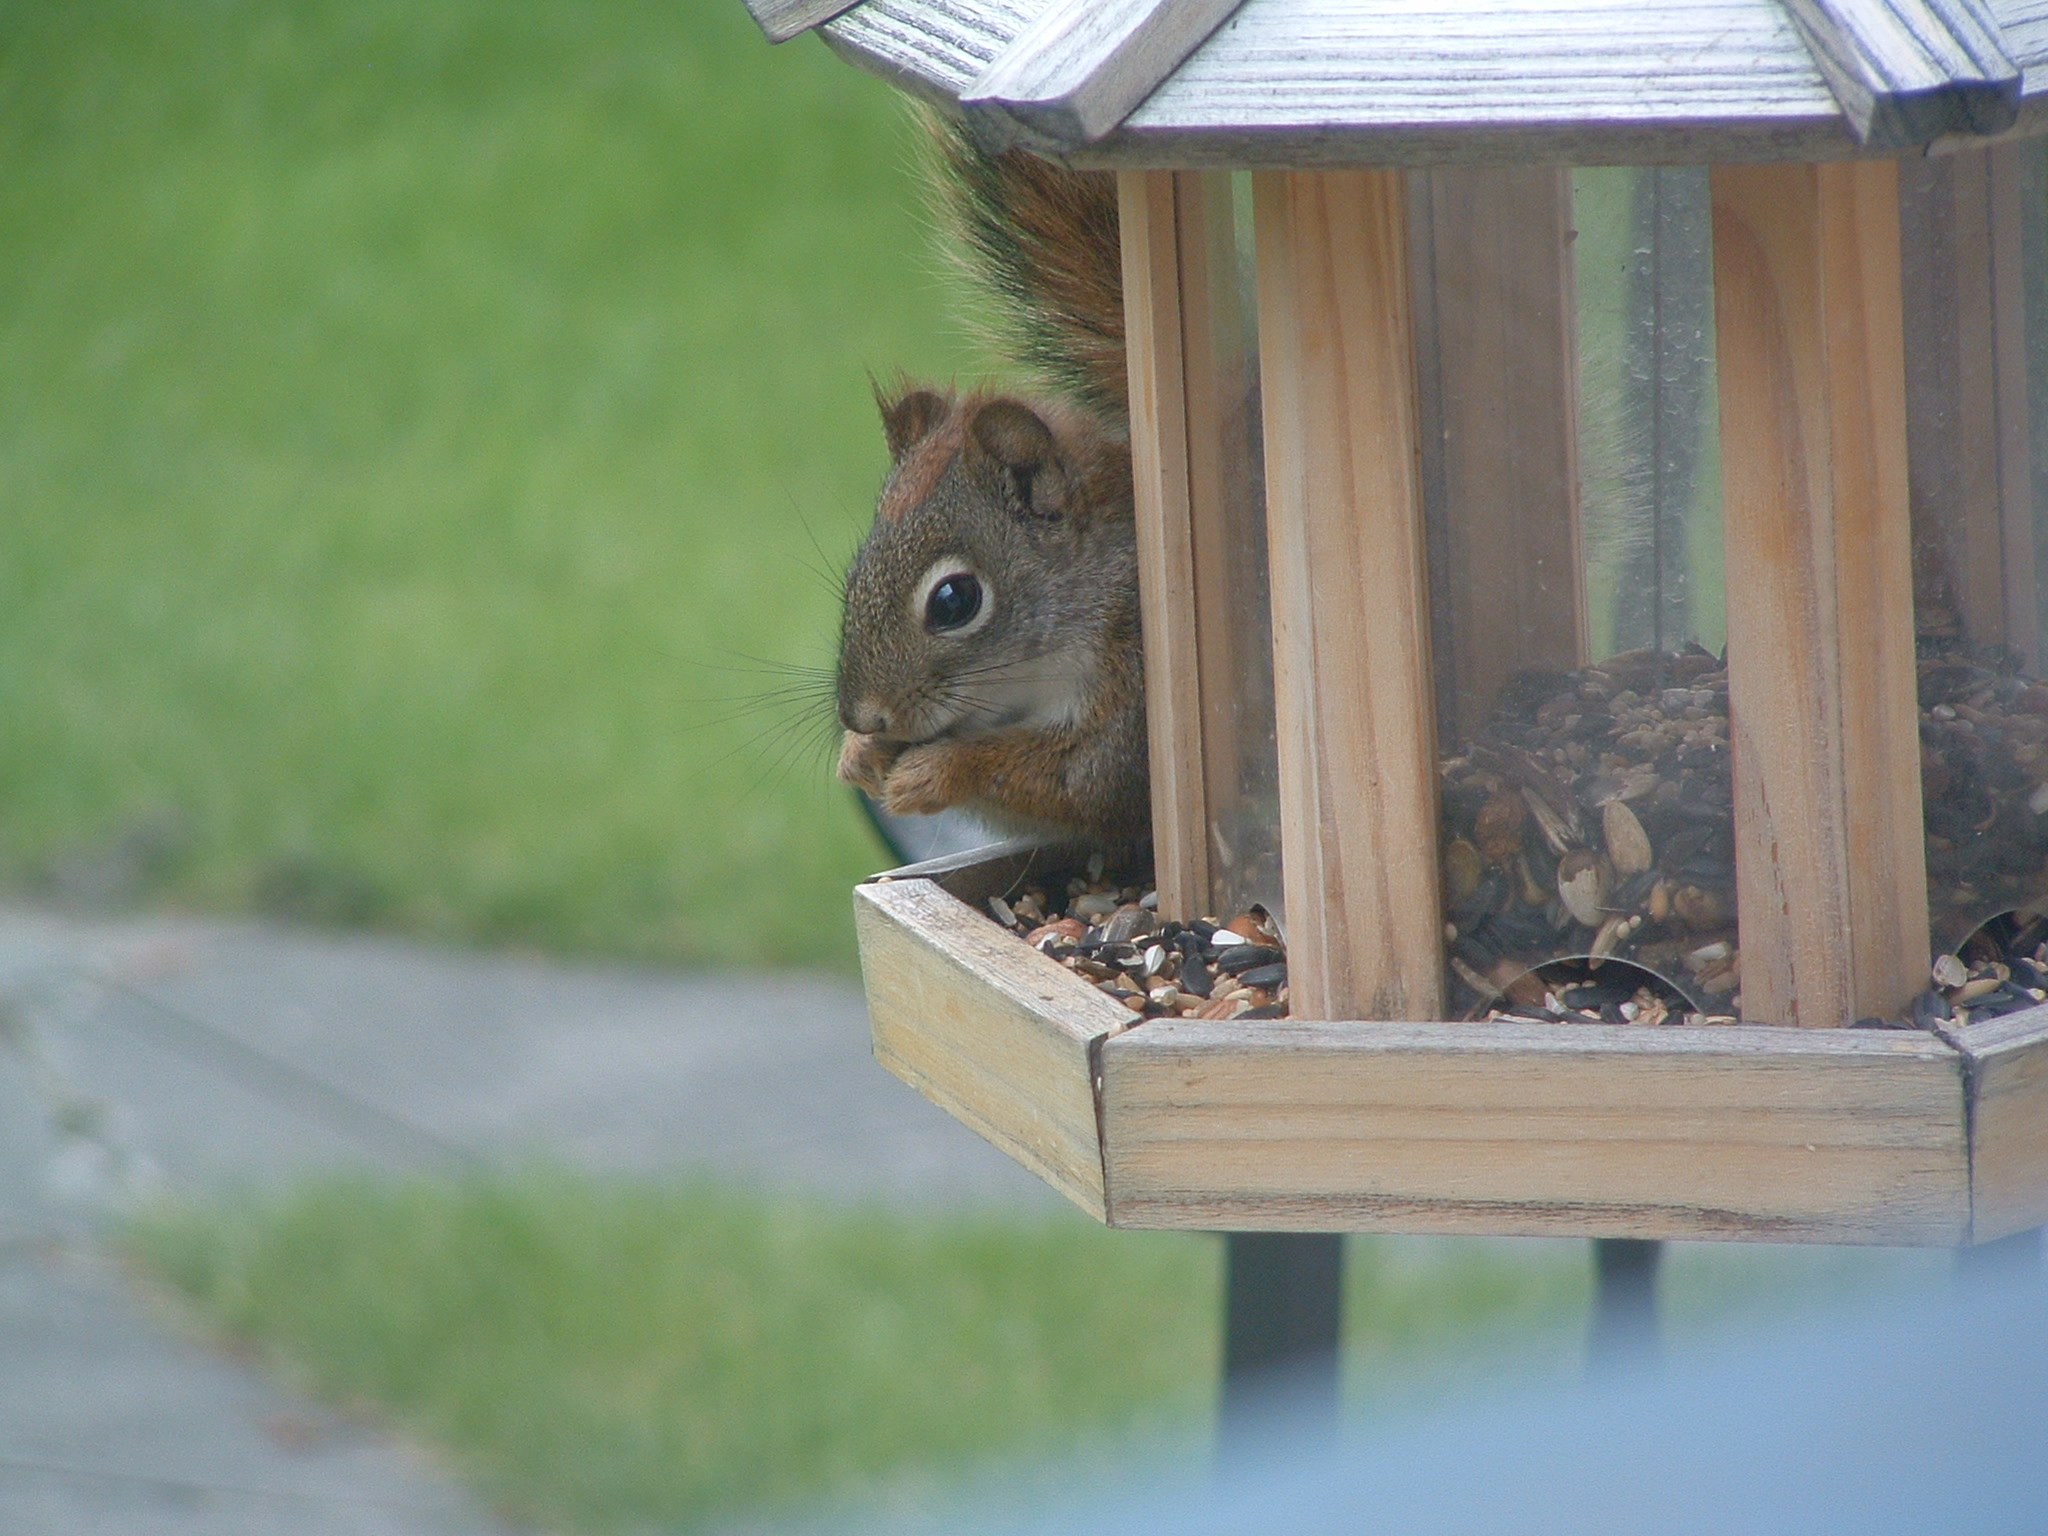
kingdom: Animalia
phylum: Chordata
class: Mammalia
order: Rodentia
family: Sciuridae
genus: Tamiasciurus
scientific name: Tamiasciurus hudsonicus
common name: Red squirrel
